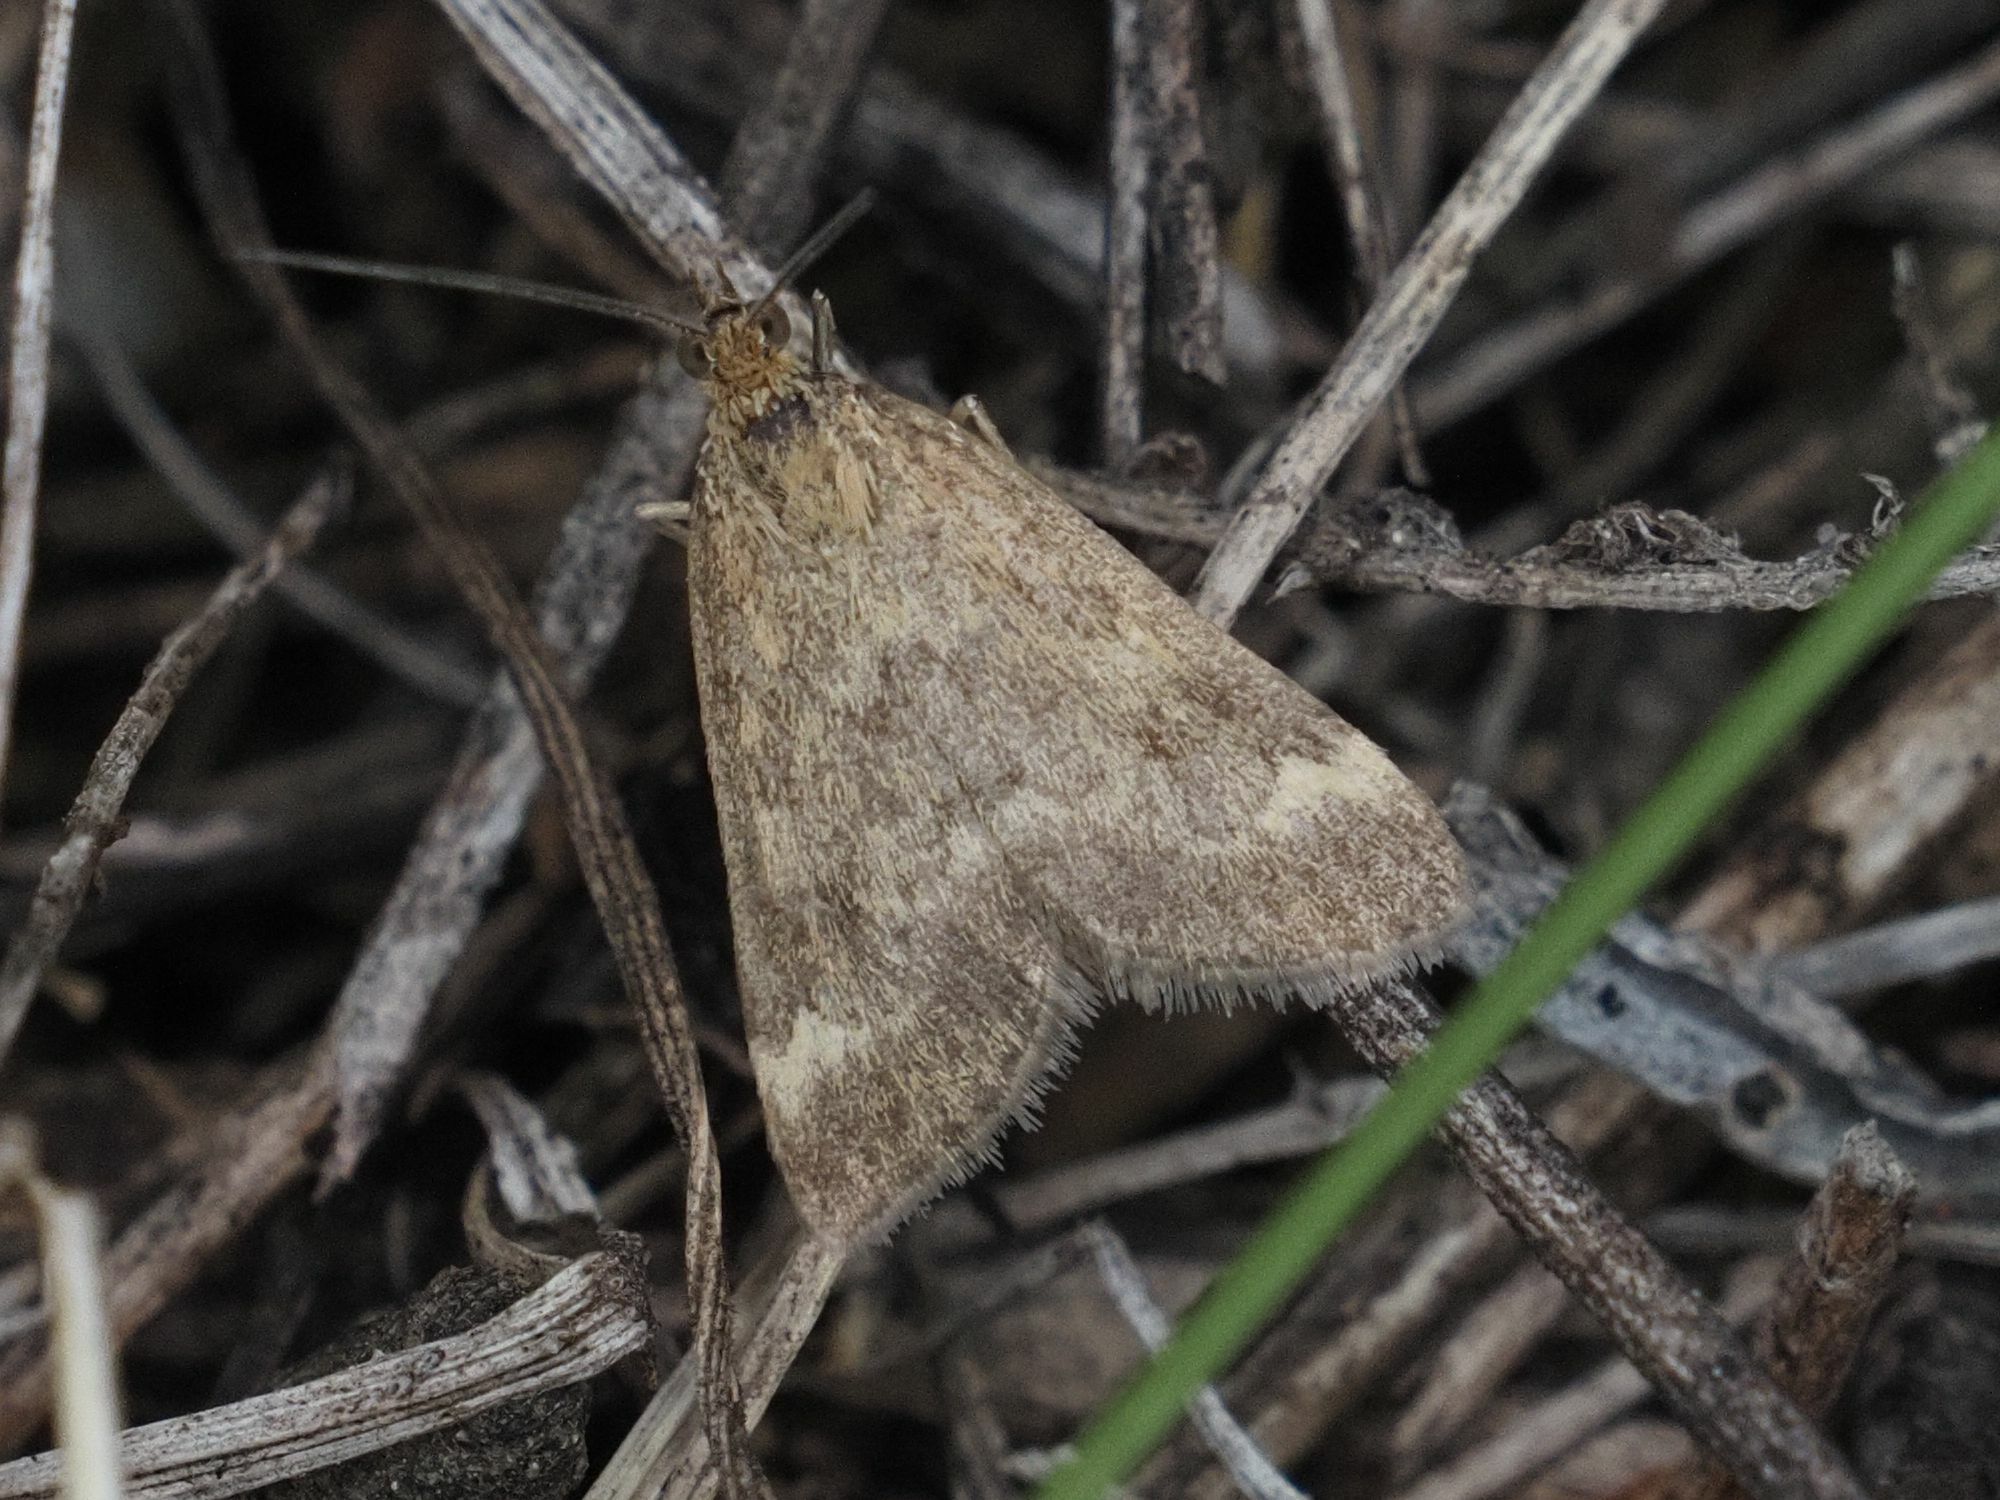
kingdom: Animalia
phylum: Arthropoda
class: Insecta
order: Lepidoptera
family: Crambidae
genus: Pyrausta
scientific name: Pyrausta despicata
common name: Straw-barred pearl
